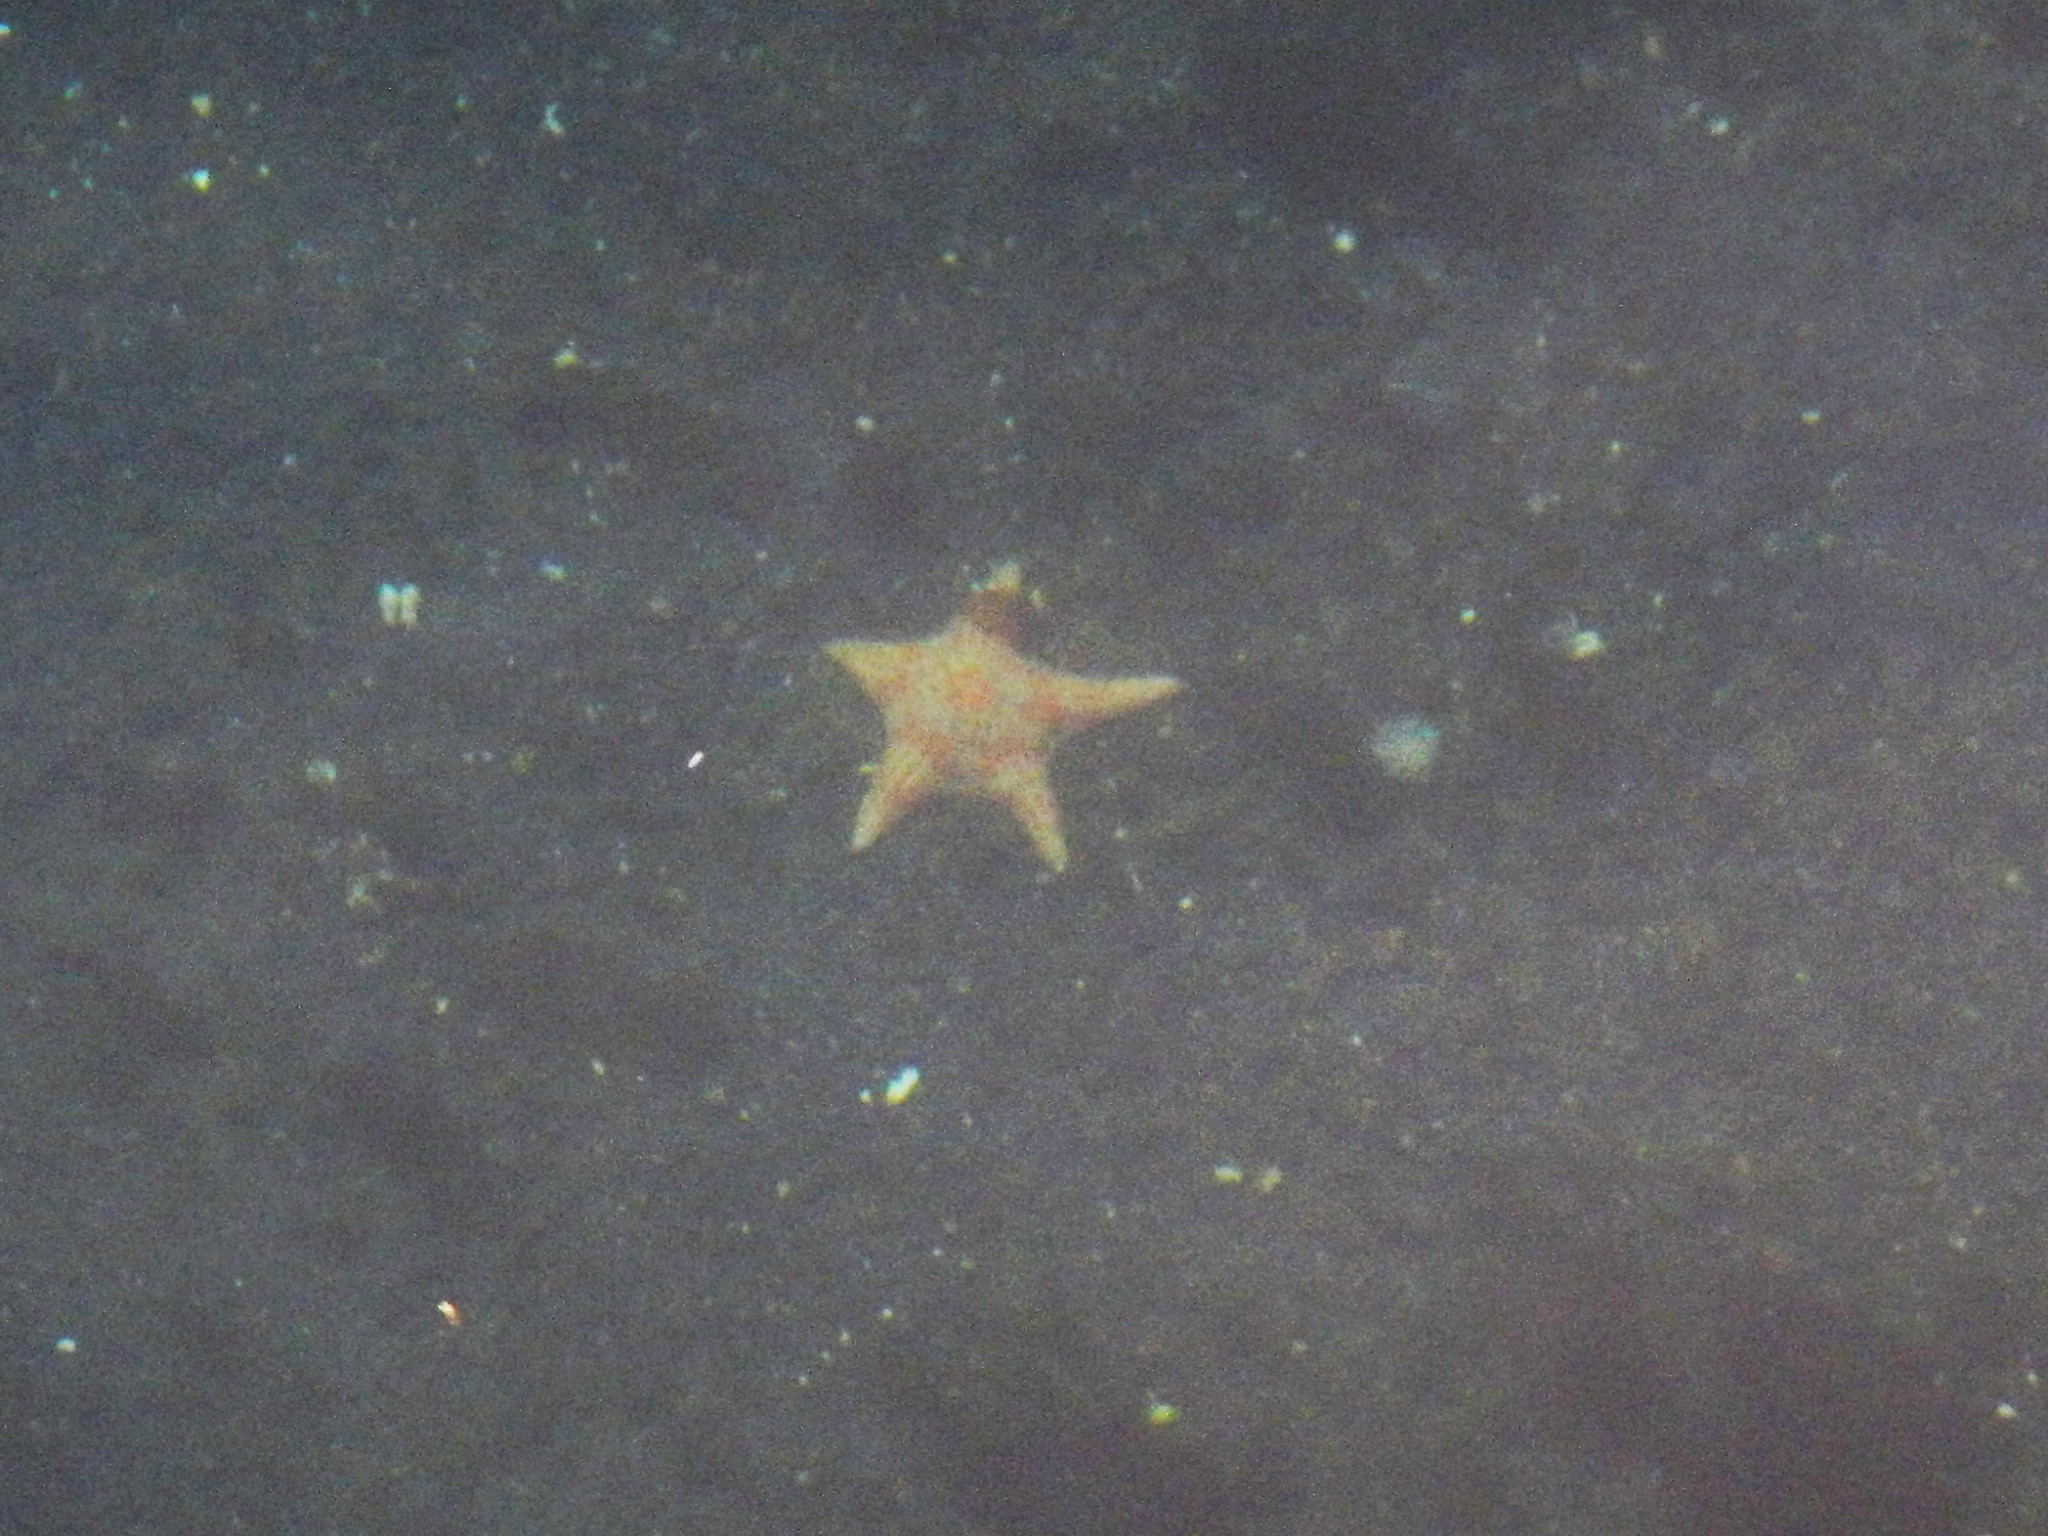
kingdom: Animalia
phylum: Echinodermata
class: Asteroidea
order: Valvatida
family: Asteropseidae
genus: Dermasterias
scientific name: Dermasterias imbricata
